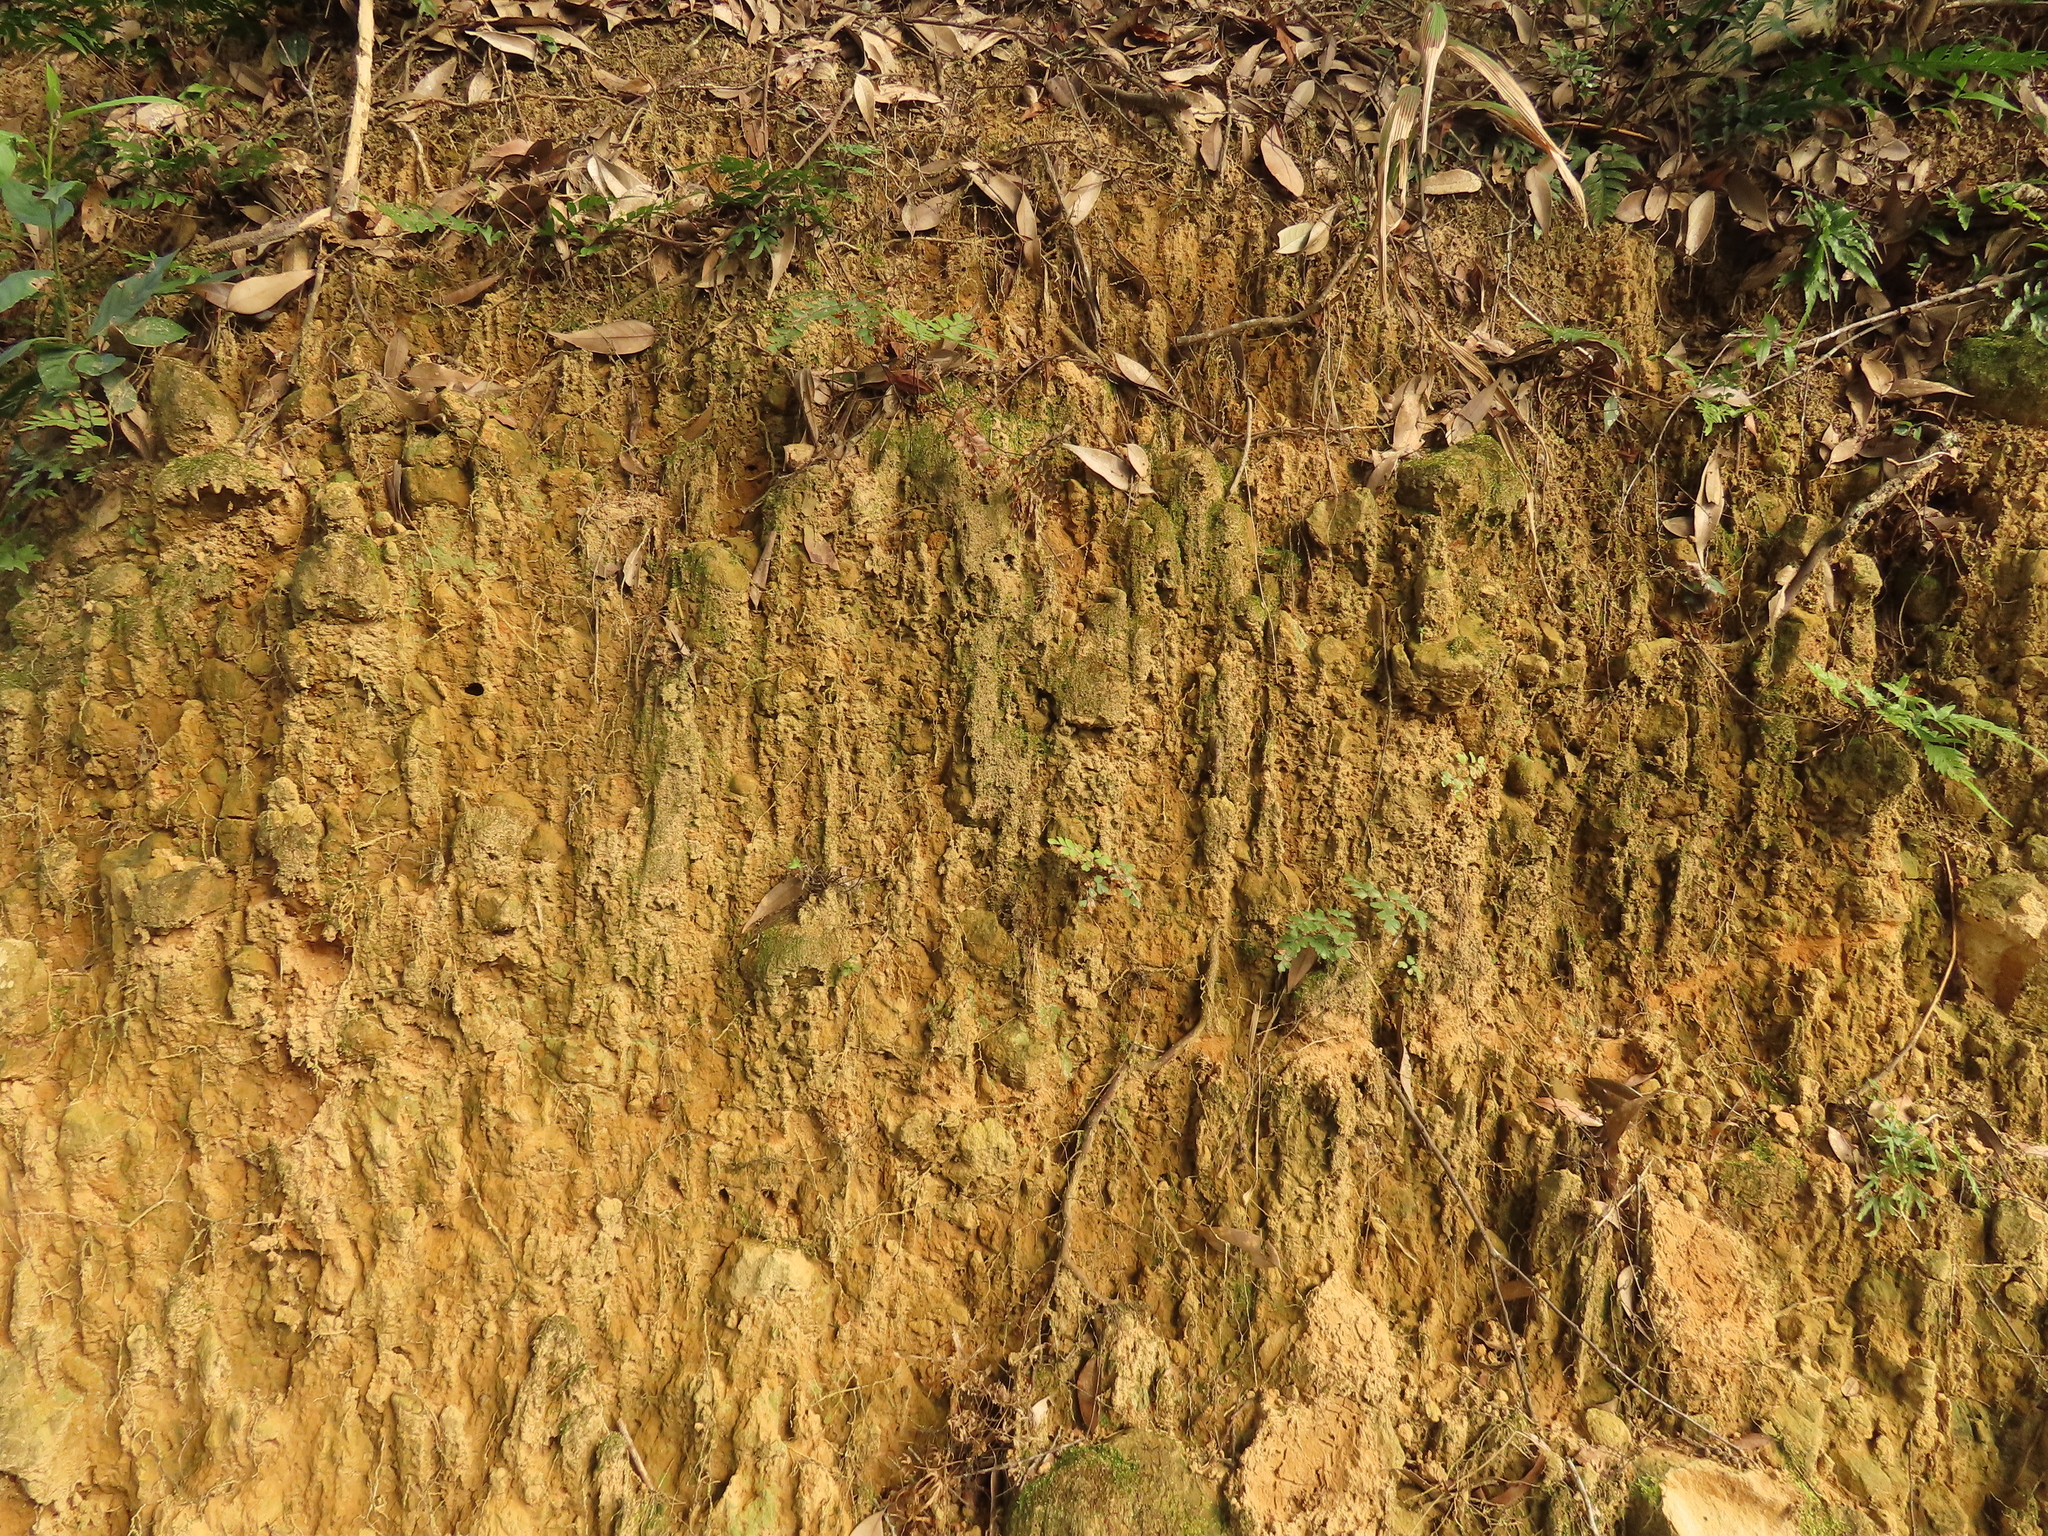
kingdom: Plantae
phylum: Tracheophyta
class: Polypodiopsida
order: Polypodiales
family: Pteridaceae
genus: Adiantum
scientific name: Adiantum flabellulatum
